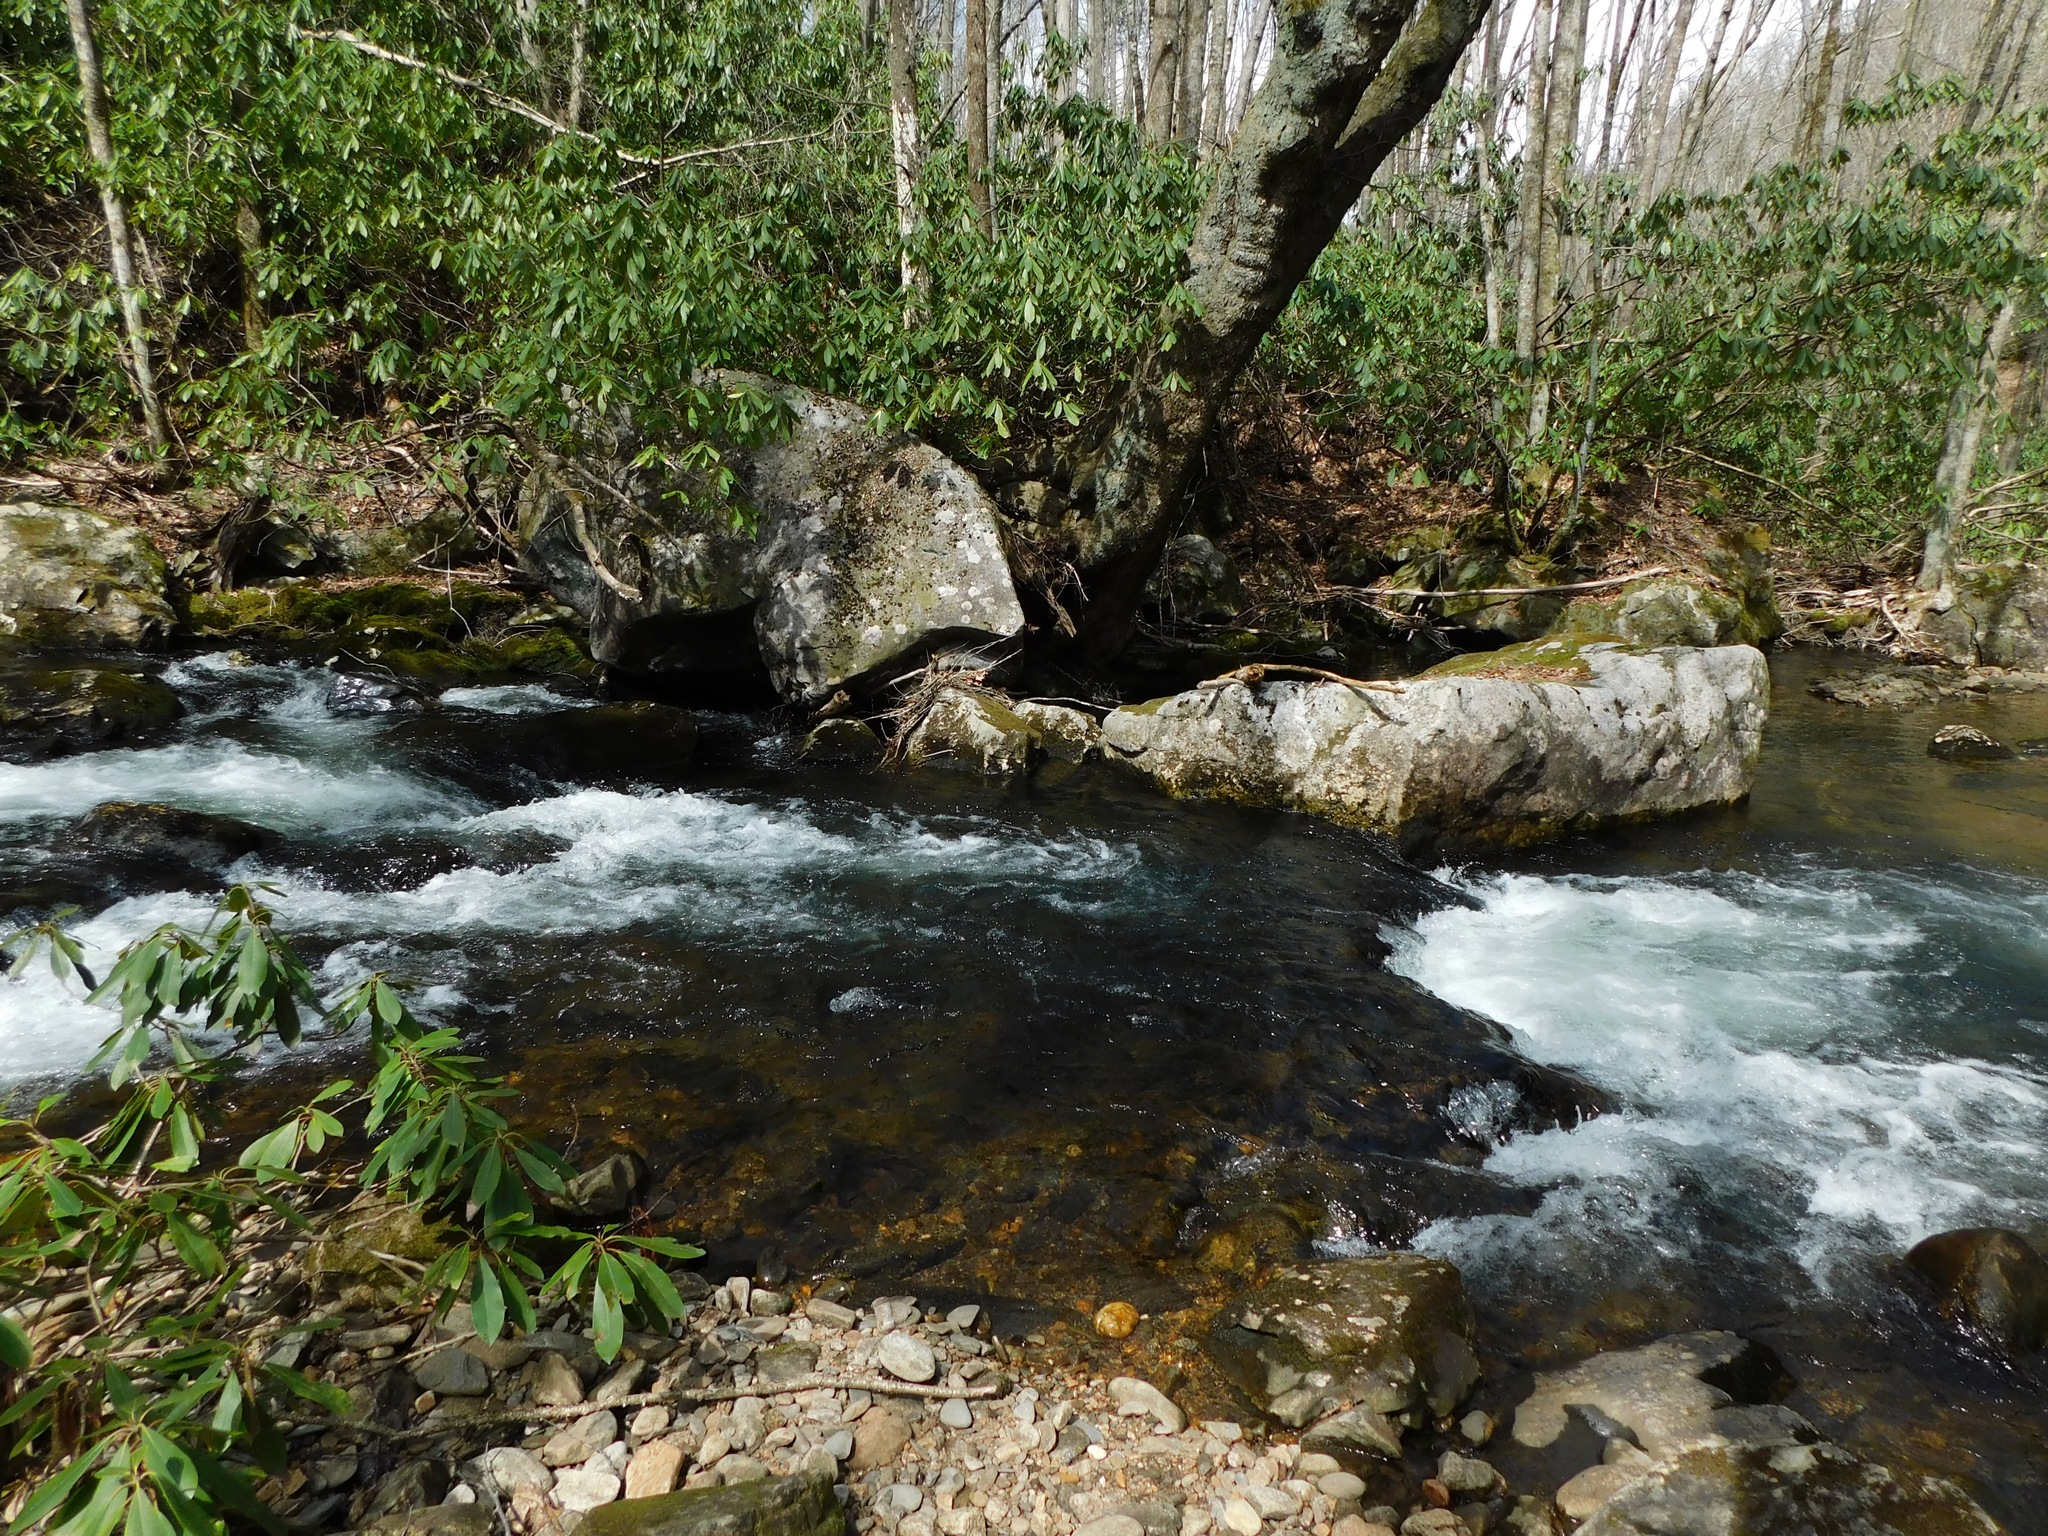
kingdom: Plantae
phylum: Tracheophyta
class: Magnoliopsida
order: Ericales
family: Ericaceae
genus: Rhododendron
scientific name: Rhododendron maximum
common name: Great rhododendron
